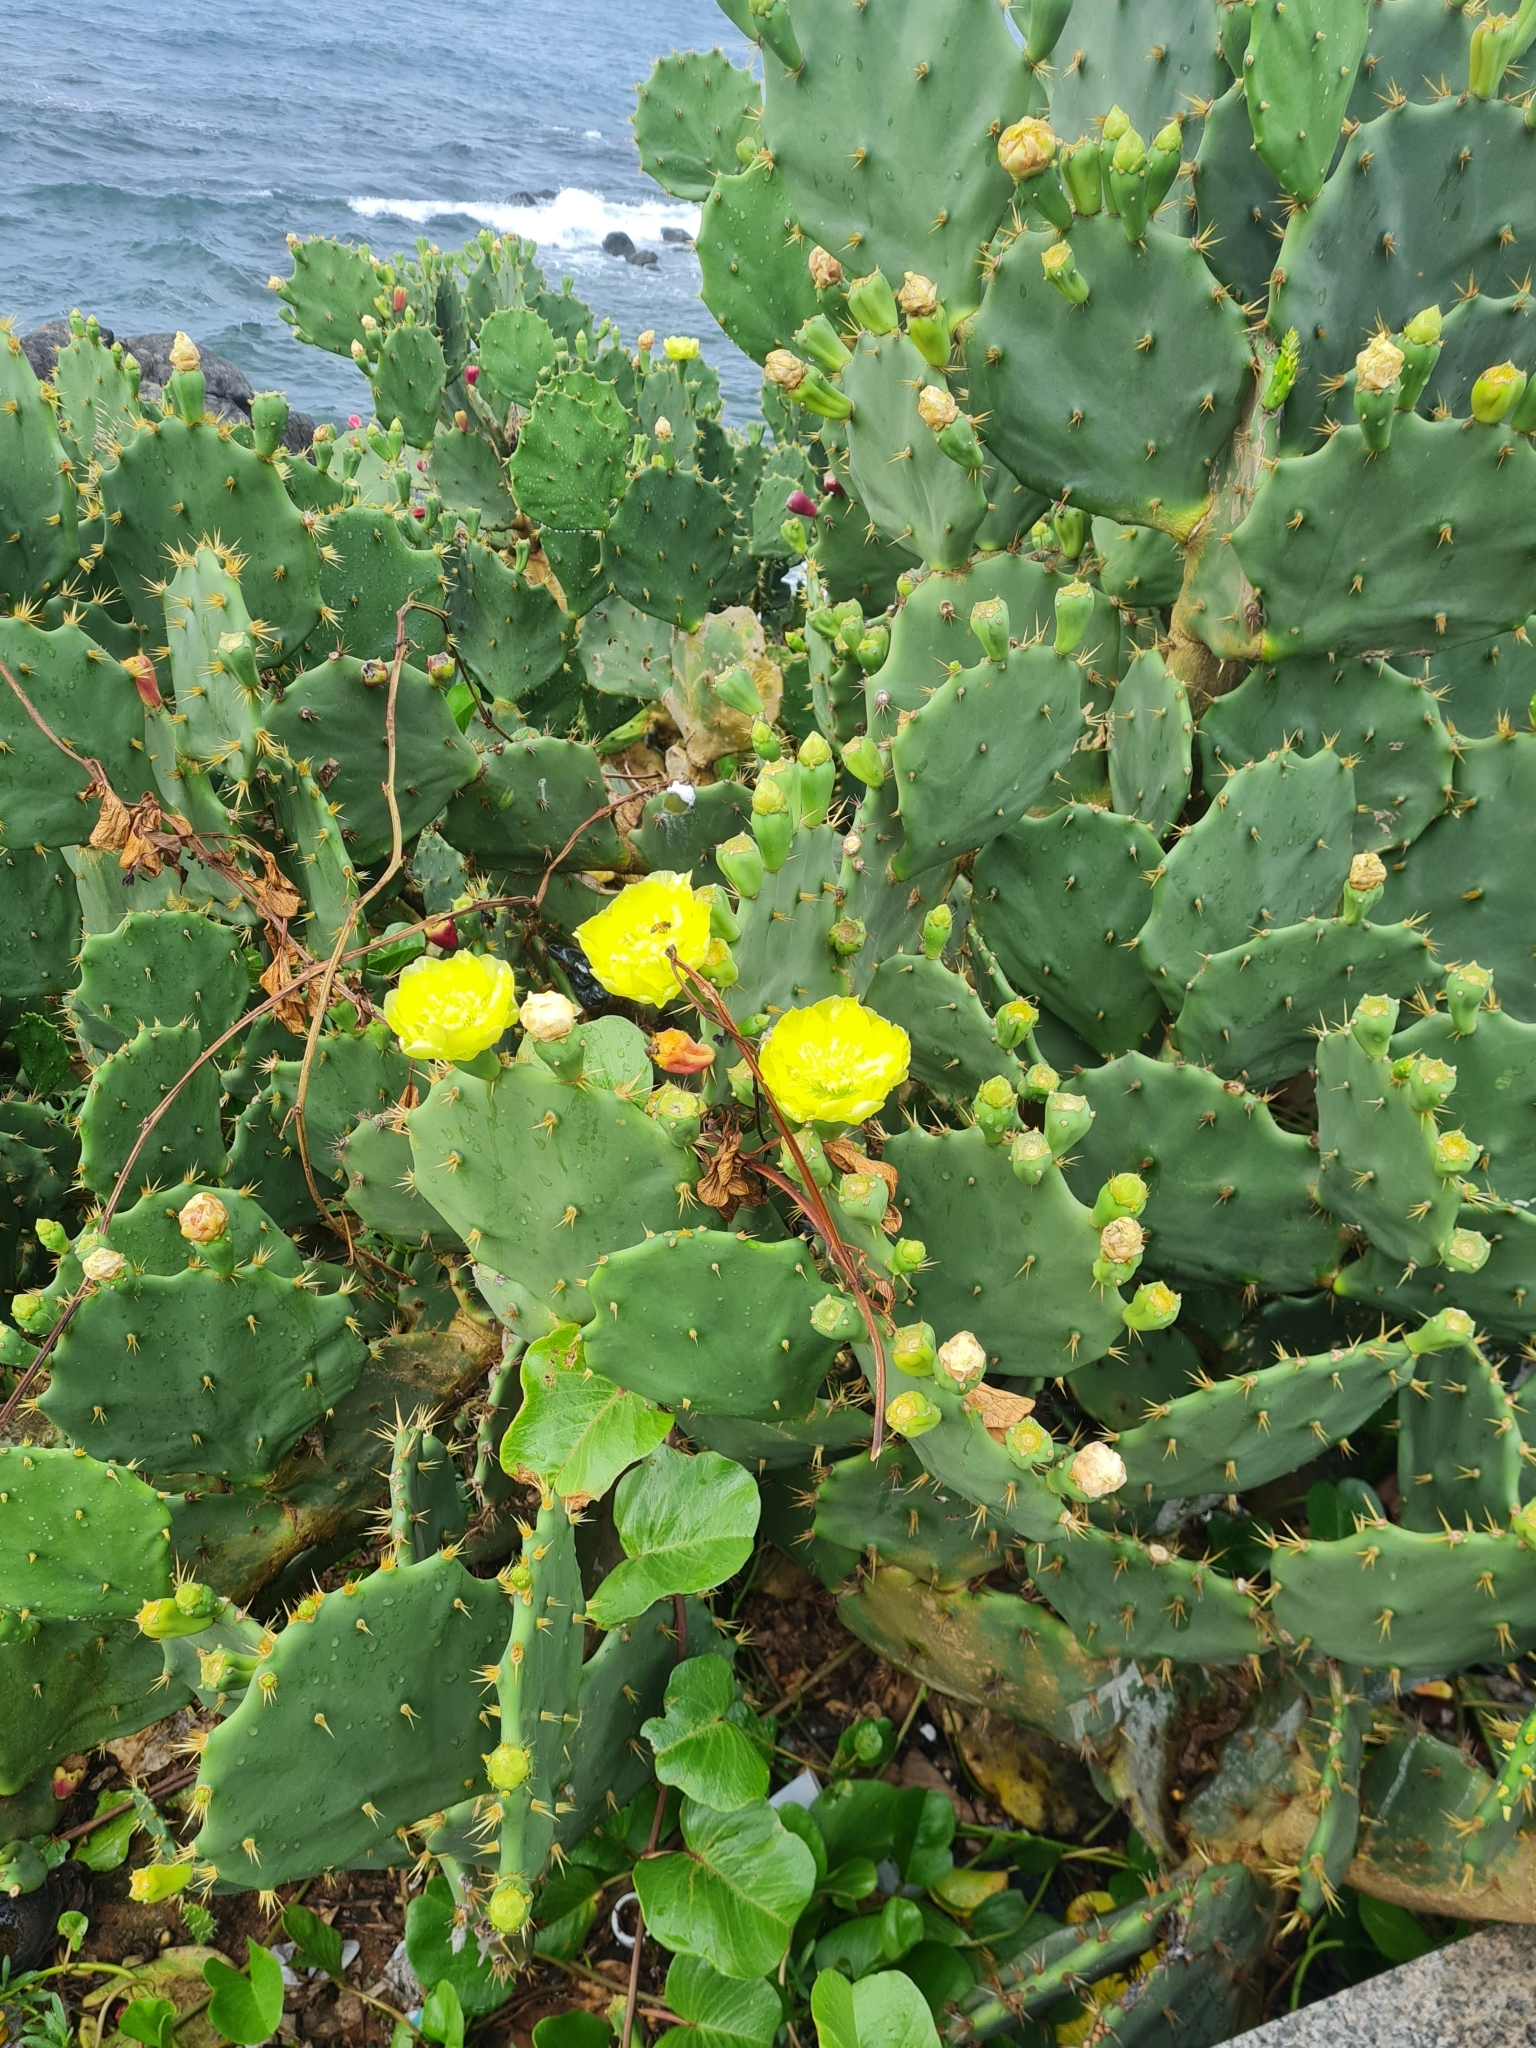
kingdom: Plantae
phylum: Tracheophyta
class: Magnoliopsida
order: Caryophyllales
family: Cactaceae
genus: Opuntia
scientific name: Opuntia dillenii
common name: Sour prickle
